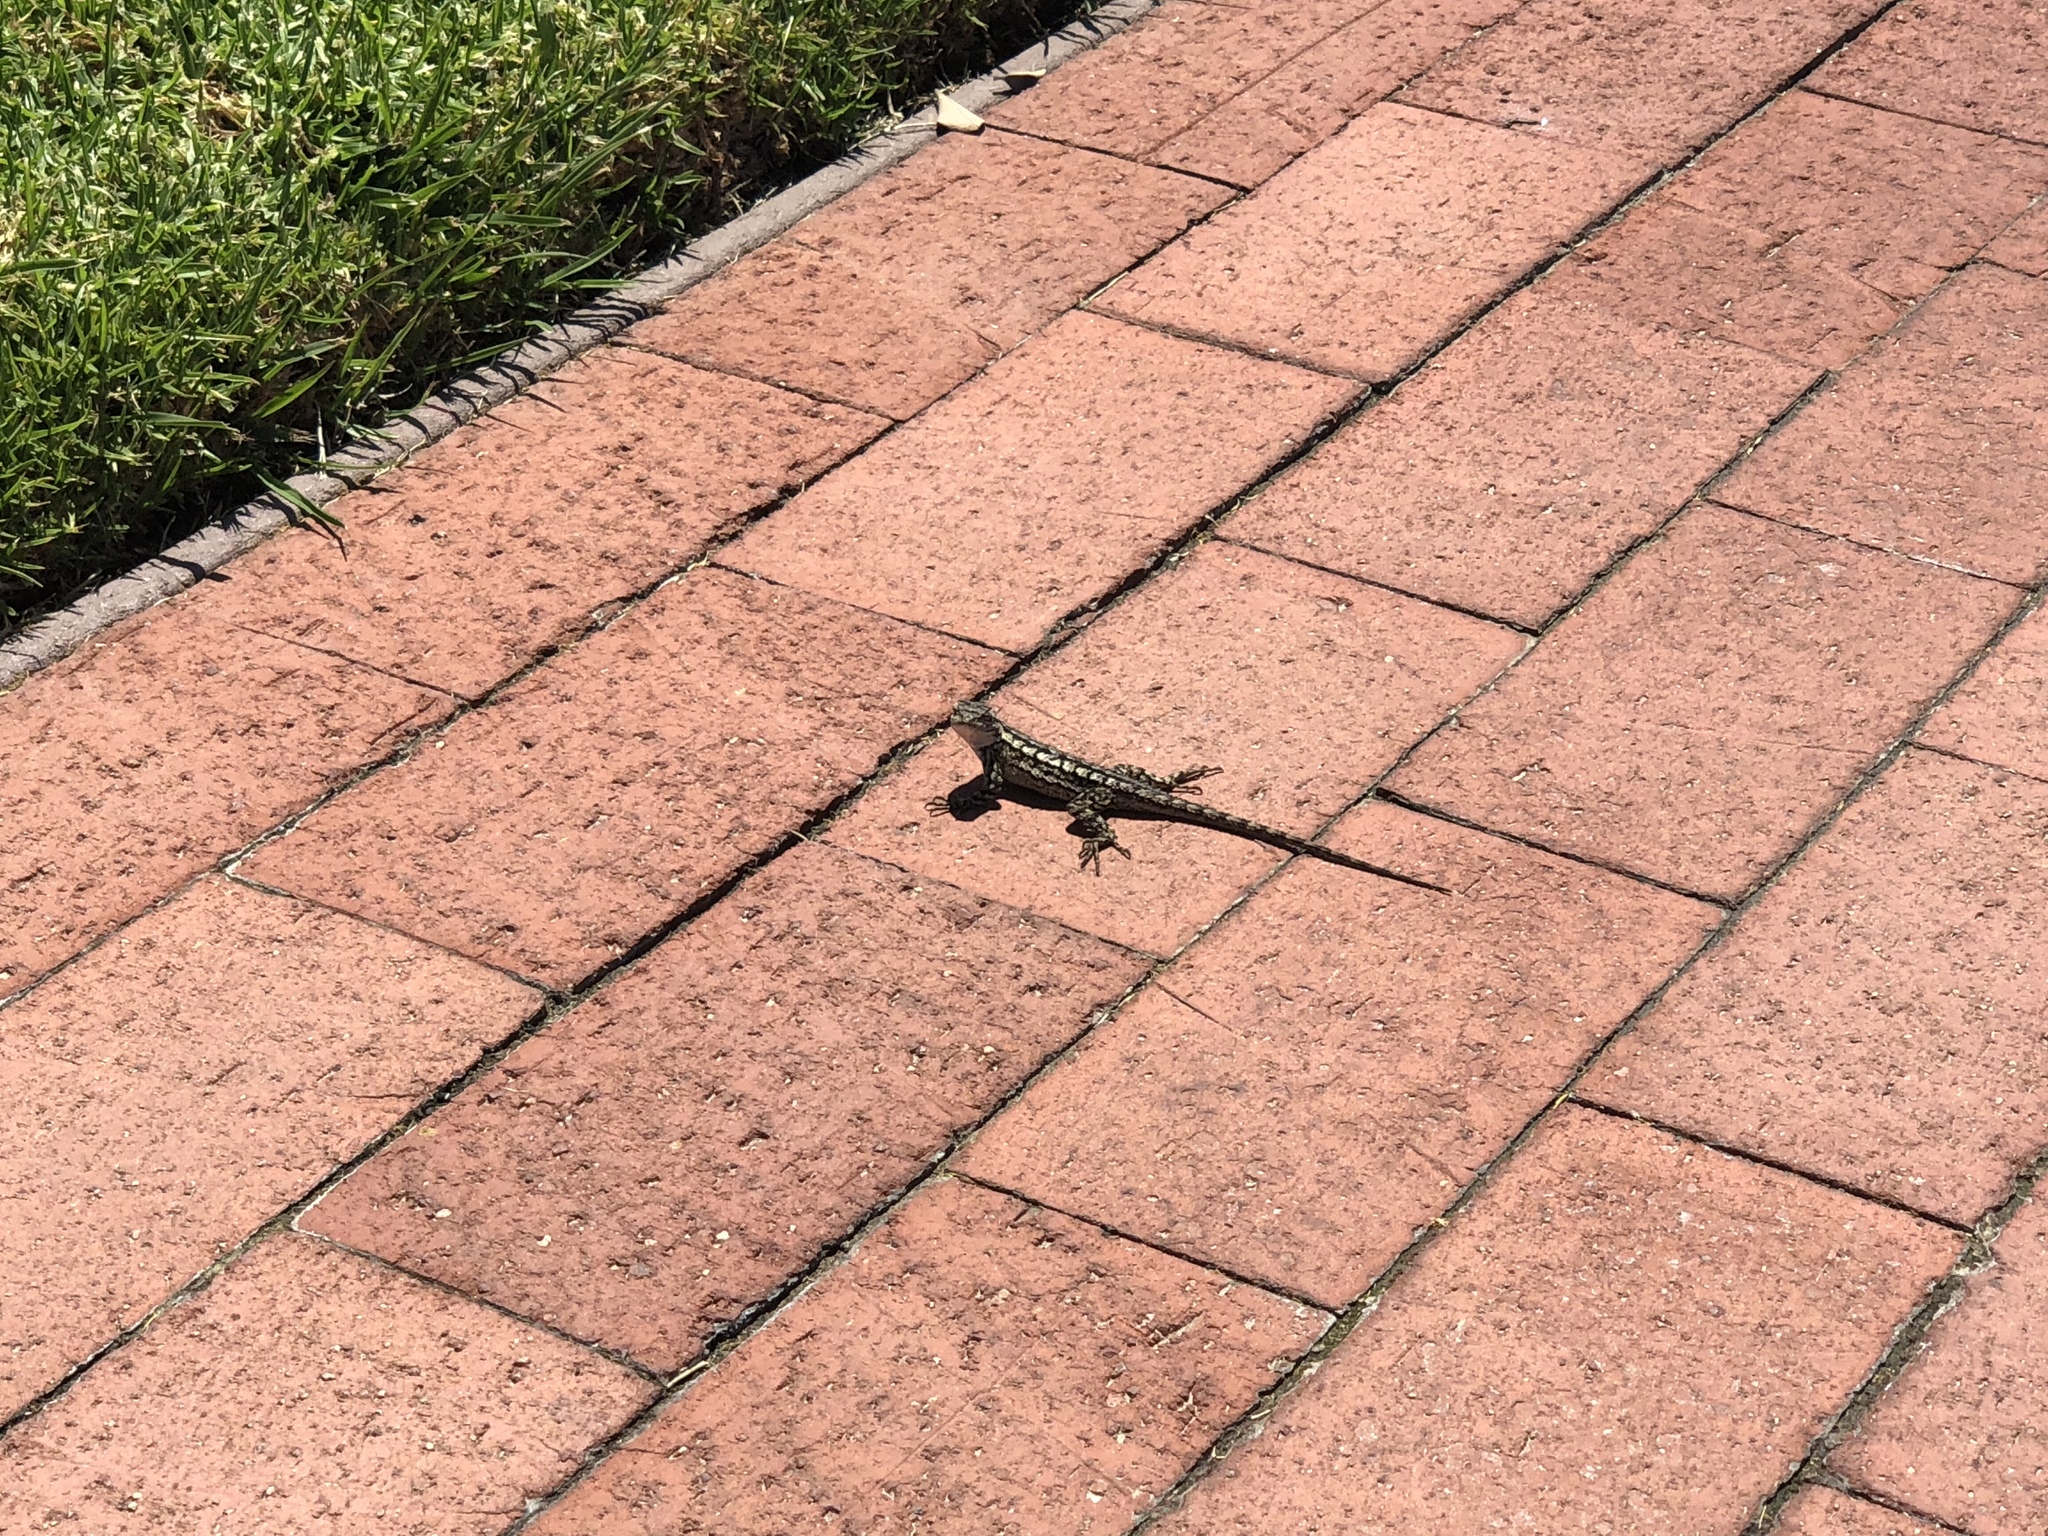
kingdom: Animalia
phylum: Chordata
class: Squamata
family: Phrynosomatidae
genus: Sceloporus
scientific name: Sceloporus occidentalis
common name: Western fence lizard
